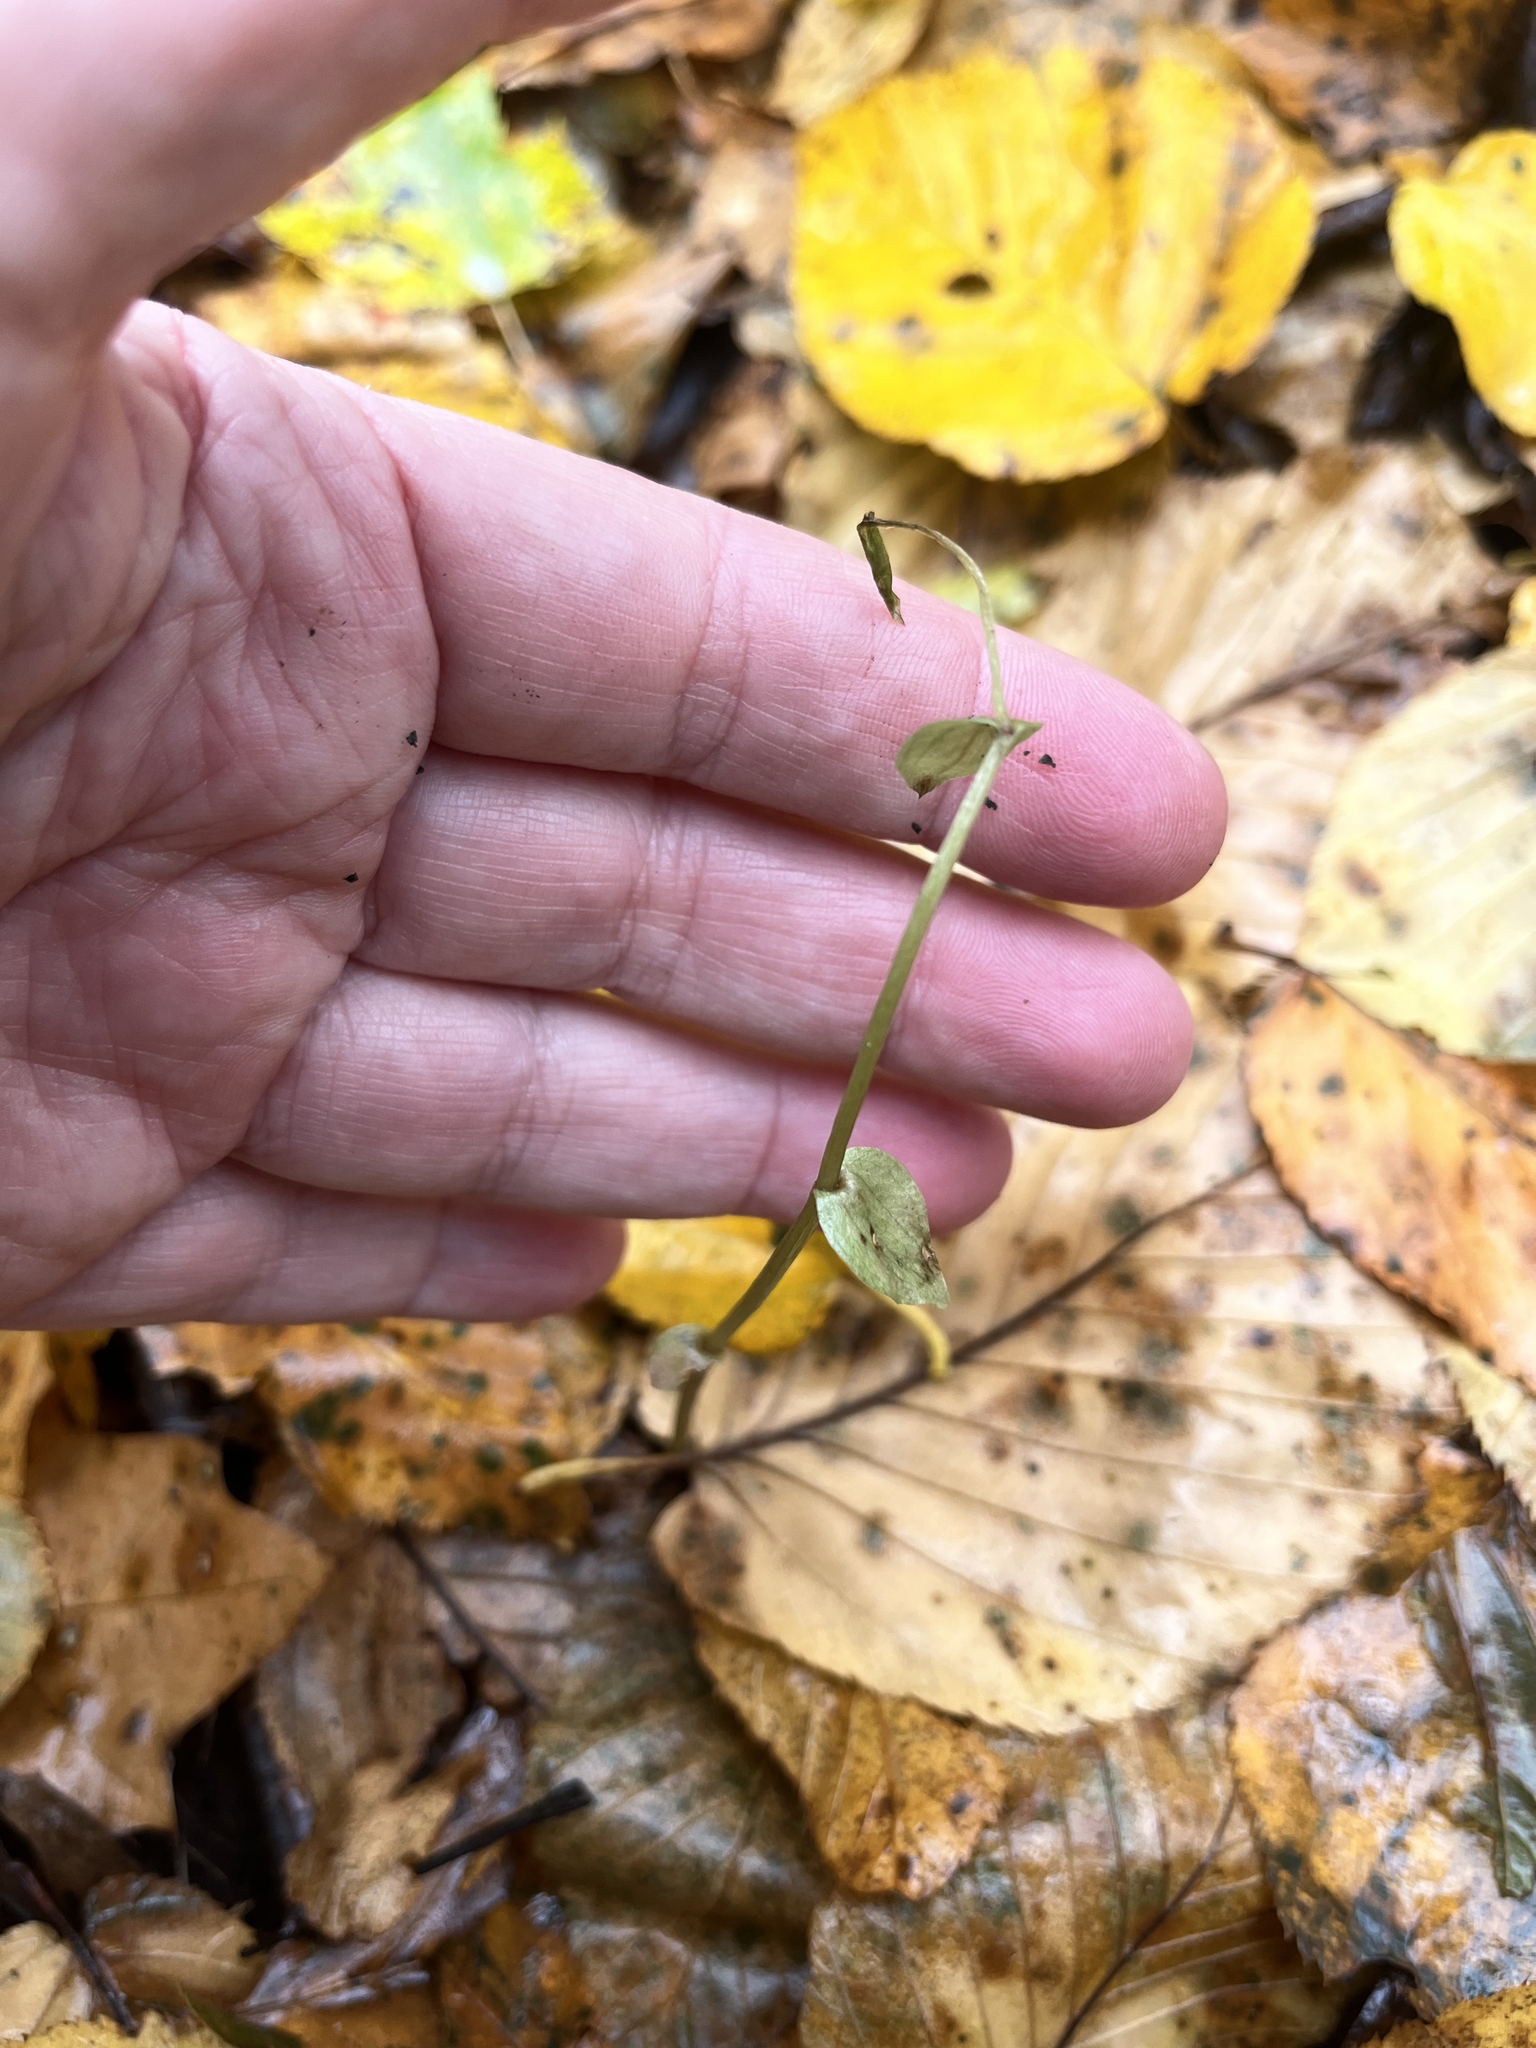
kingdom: Plantae
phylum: Tracheophyta
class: Liliopsida
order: Asparagales
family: Orchidaceae
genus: Triphora
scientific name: Triphora trianthophoros
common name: Three birds orchid
